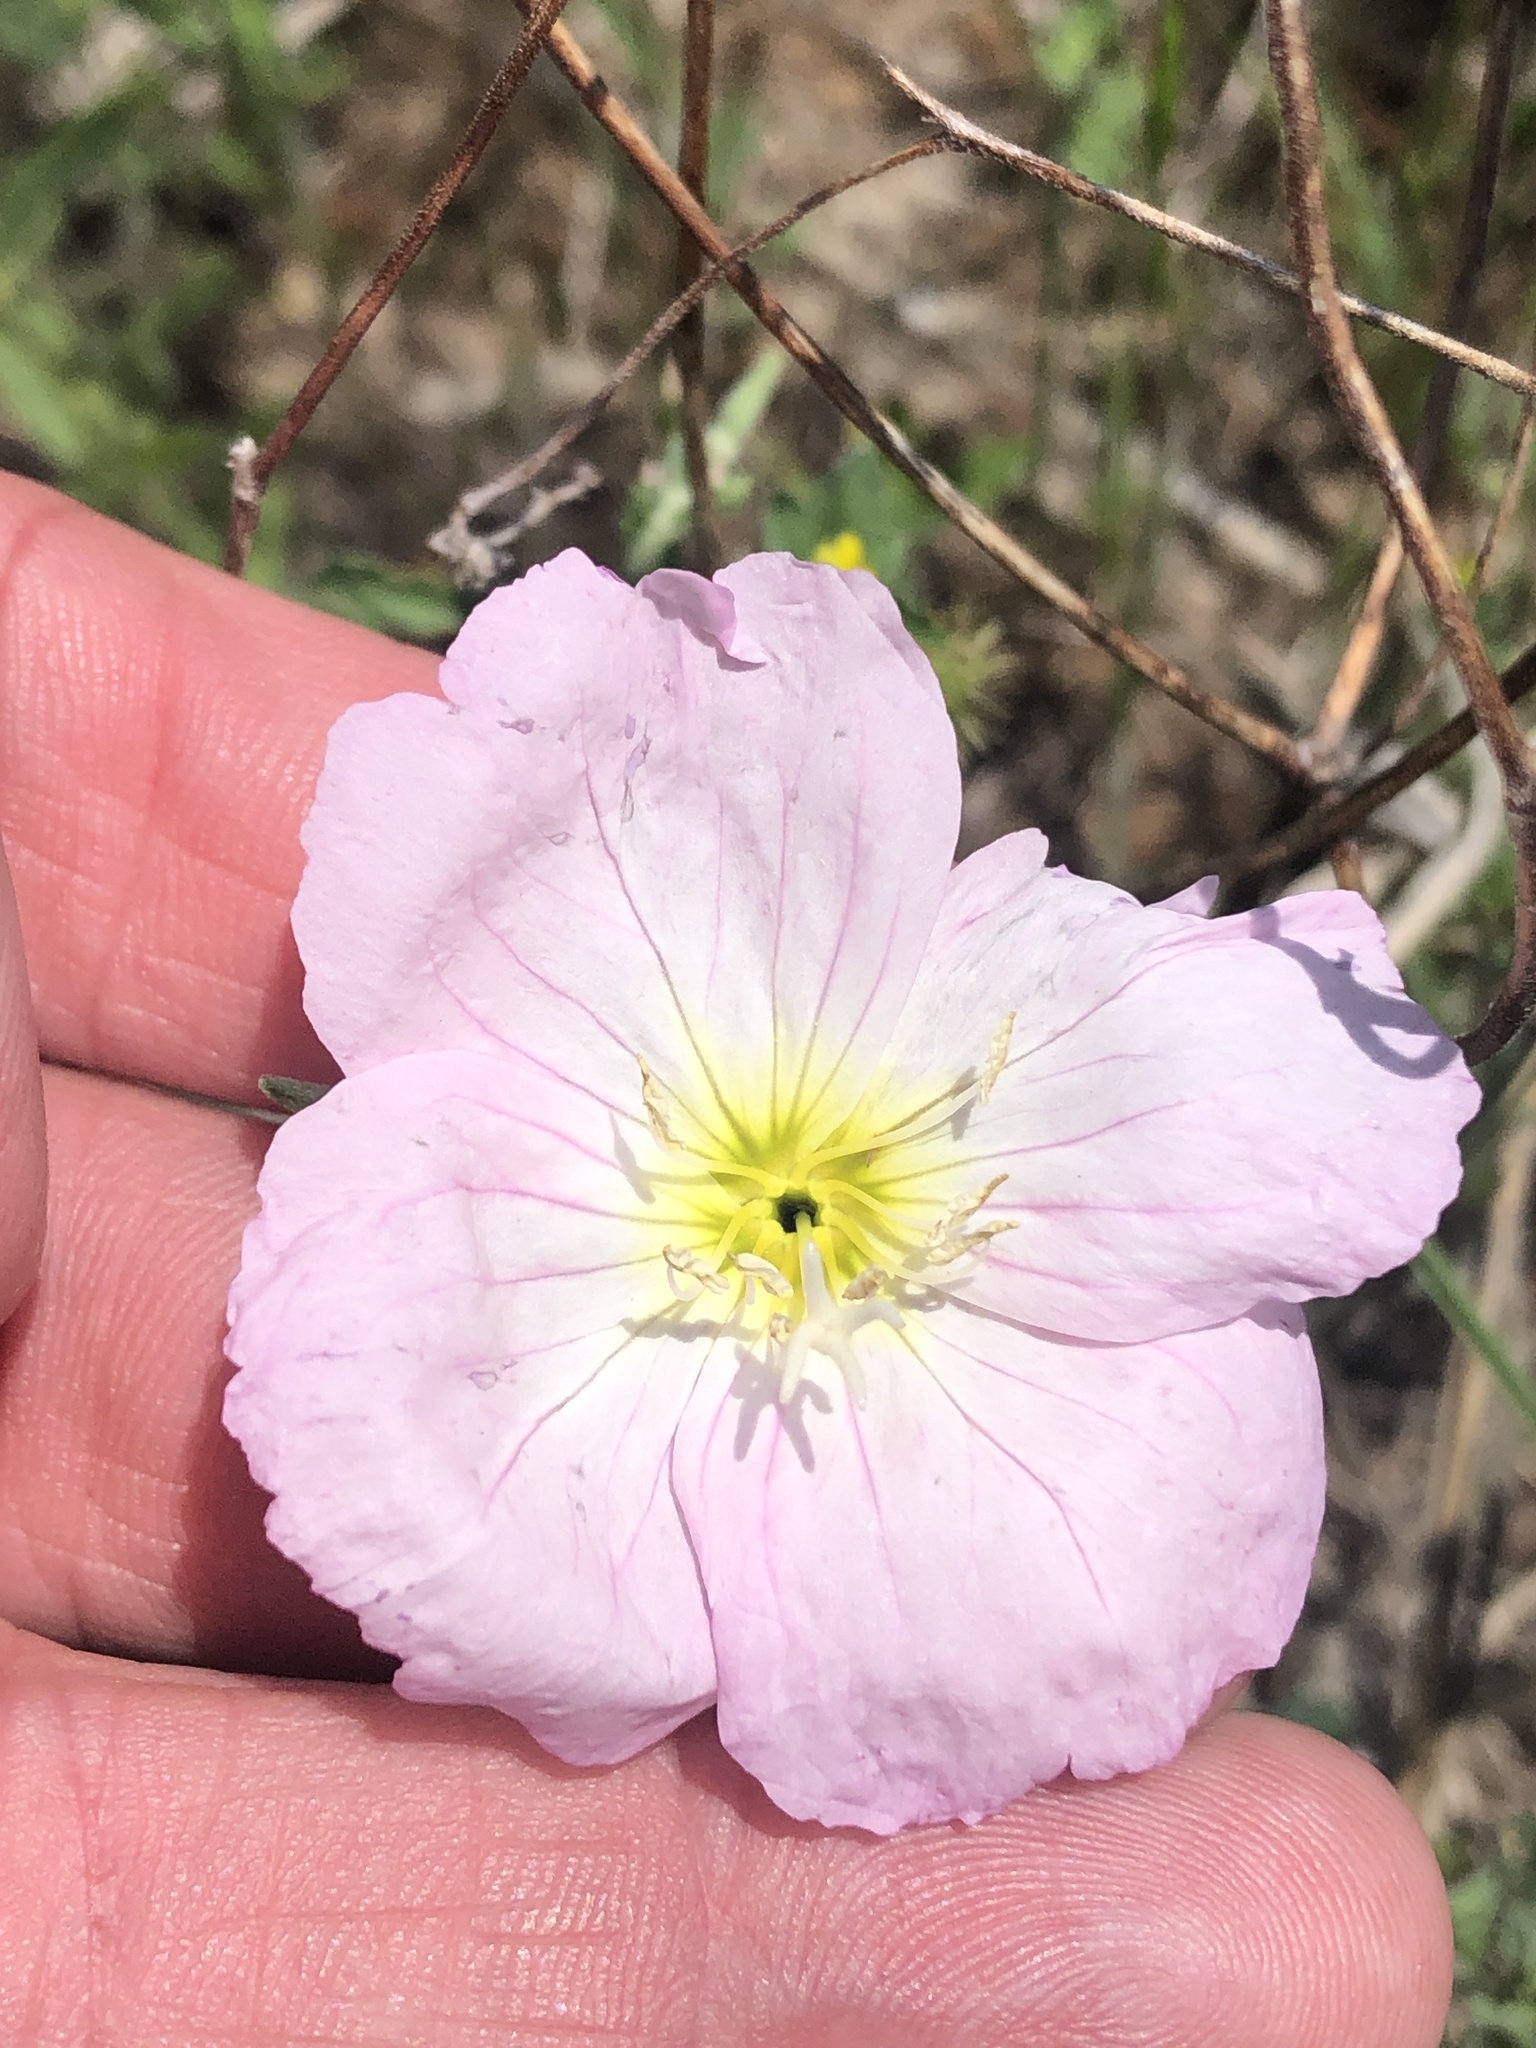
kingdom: Plantae
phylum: Tracheophyta
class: Magnoliopsida
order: Myrtales
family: Onagraceae
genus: Oenothera
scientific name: Oenothera speciosa
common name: White evening-primrose
